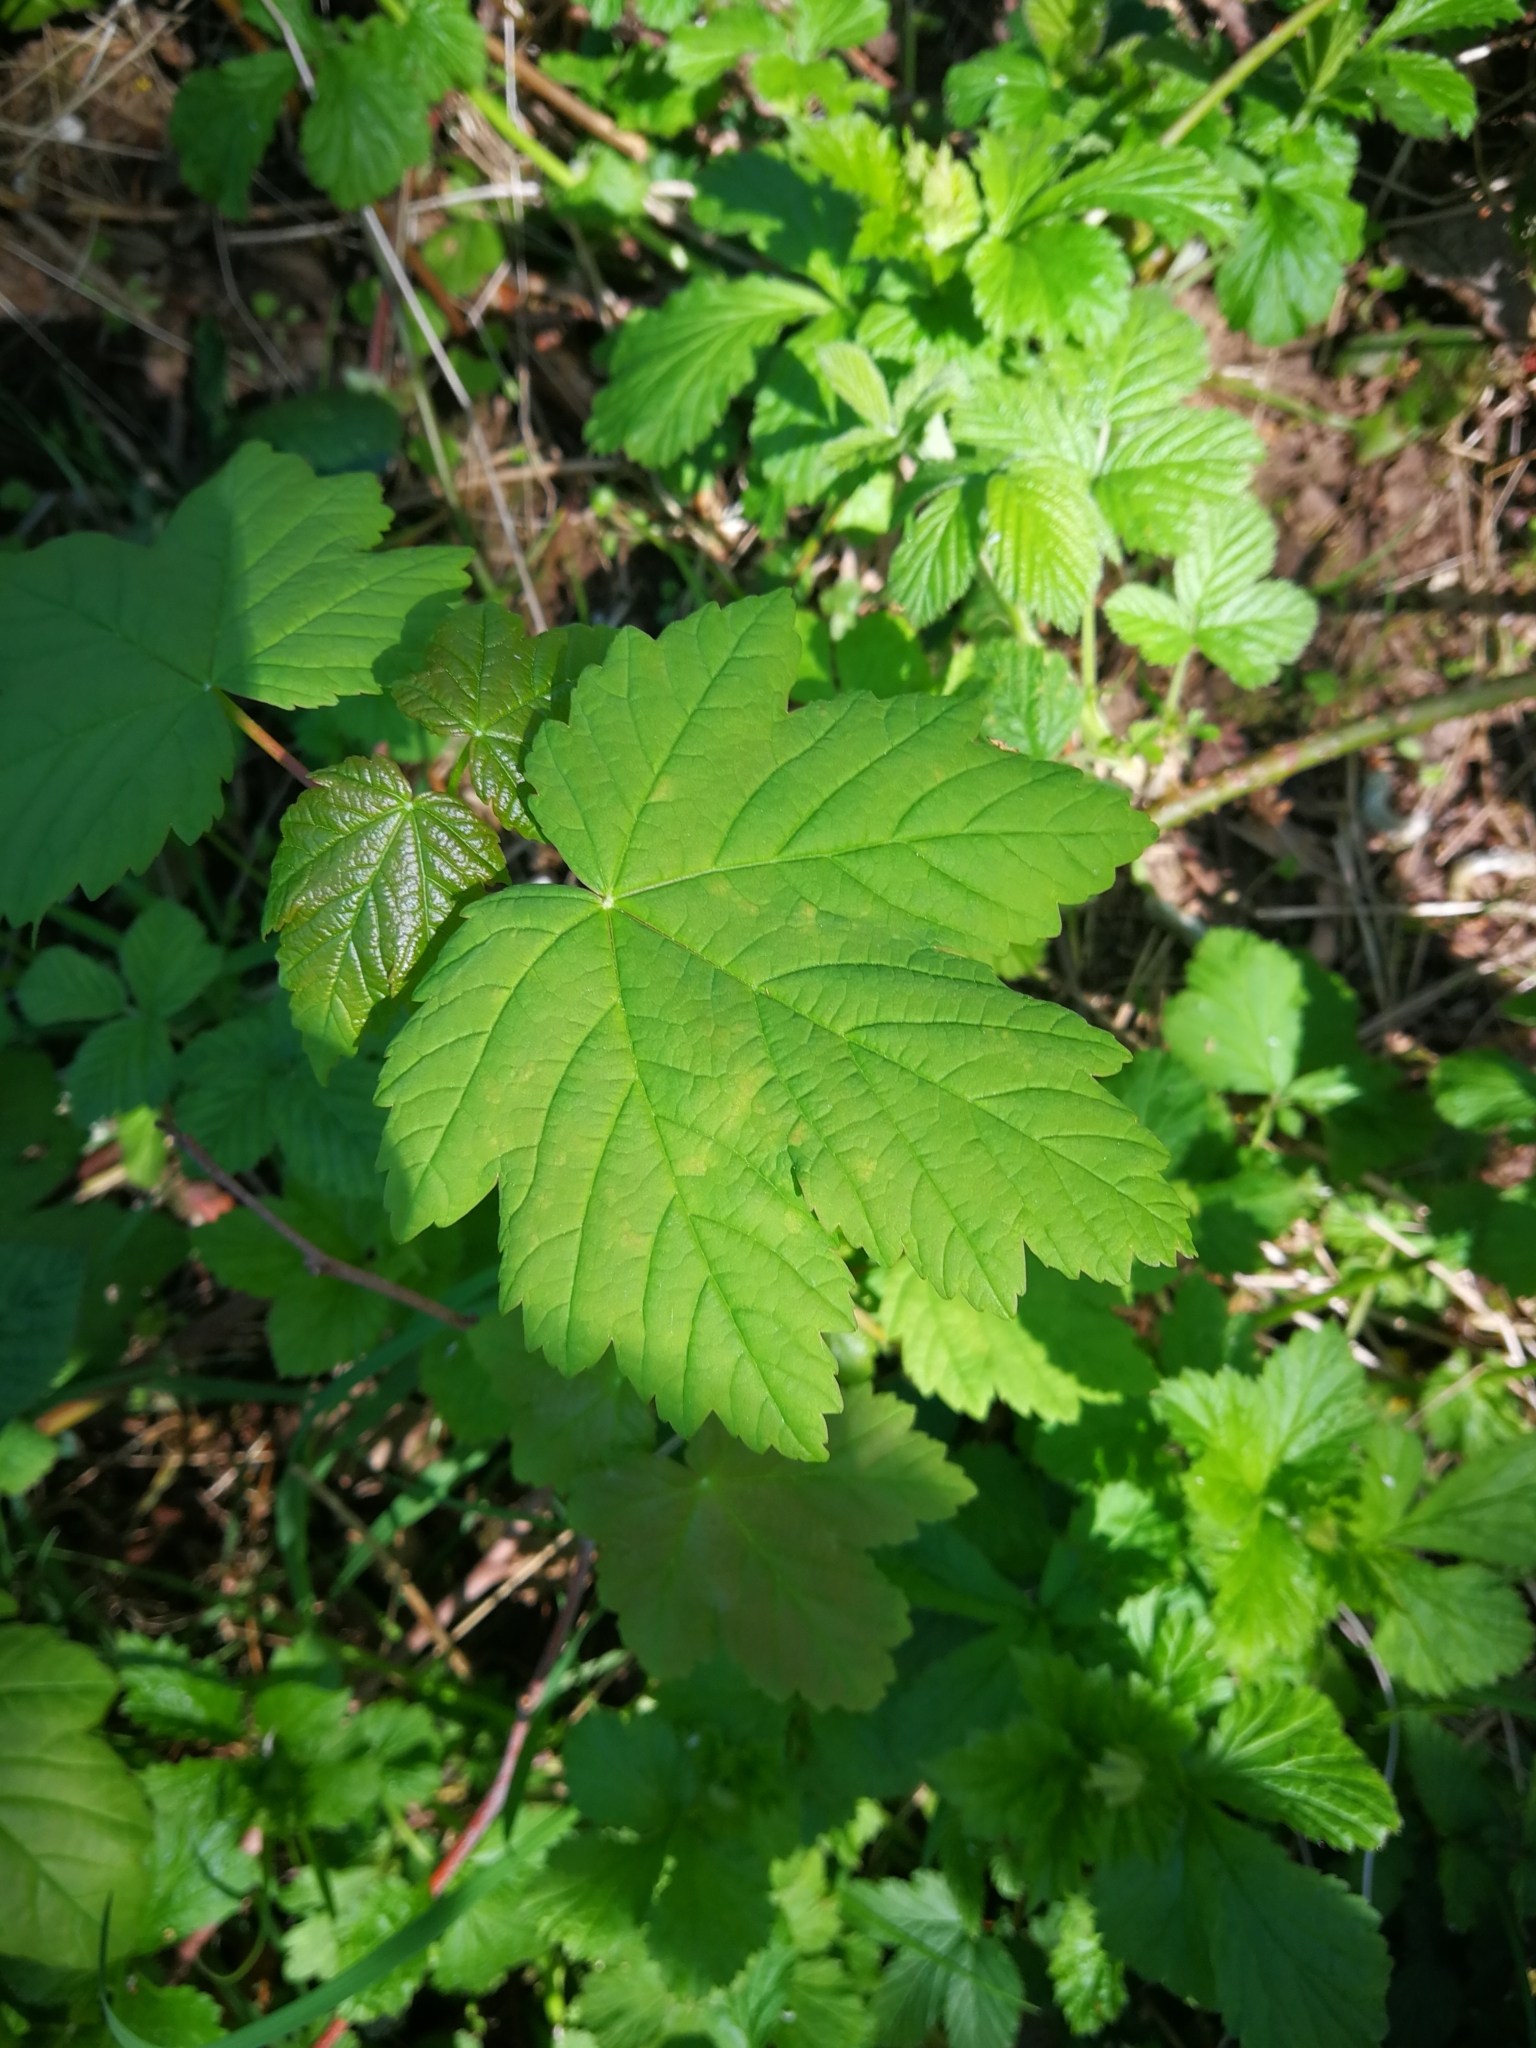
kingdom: Plantae
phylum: Tracheophyta
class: Magnoliopsida
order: Sapindales
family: Sapindaceae
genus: Acer
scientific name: Acer pseudoplatanus
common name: Sycamore
